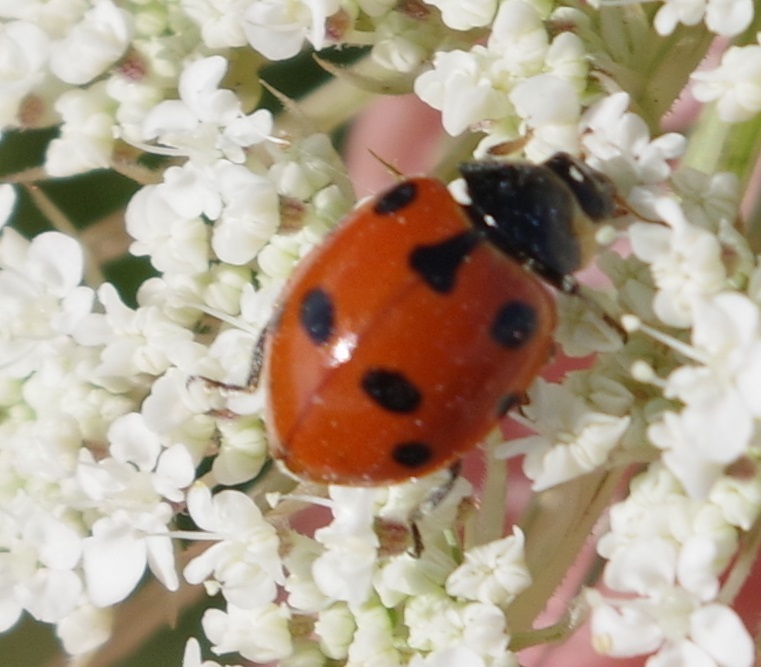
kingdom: Animalia
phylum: Arthropoda
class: Insecta
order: Coleoptera
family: Coccinellidae
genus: Ceratomegilla
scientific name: Ceratomegilla undecimnotata
